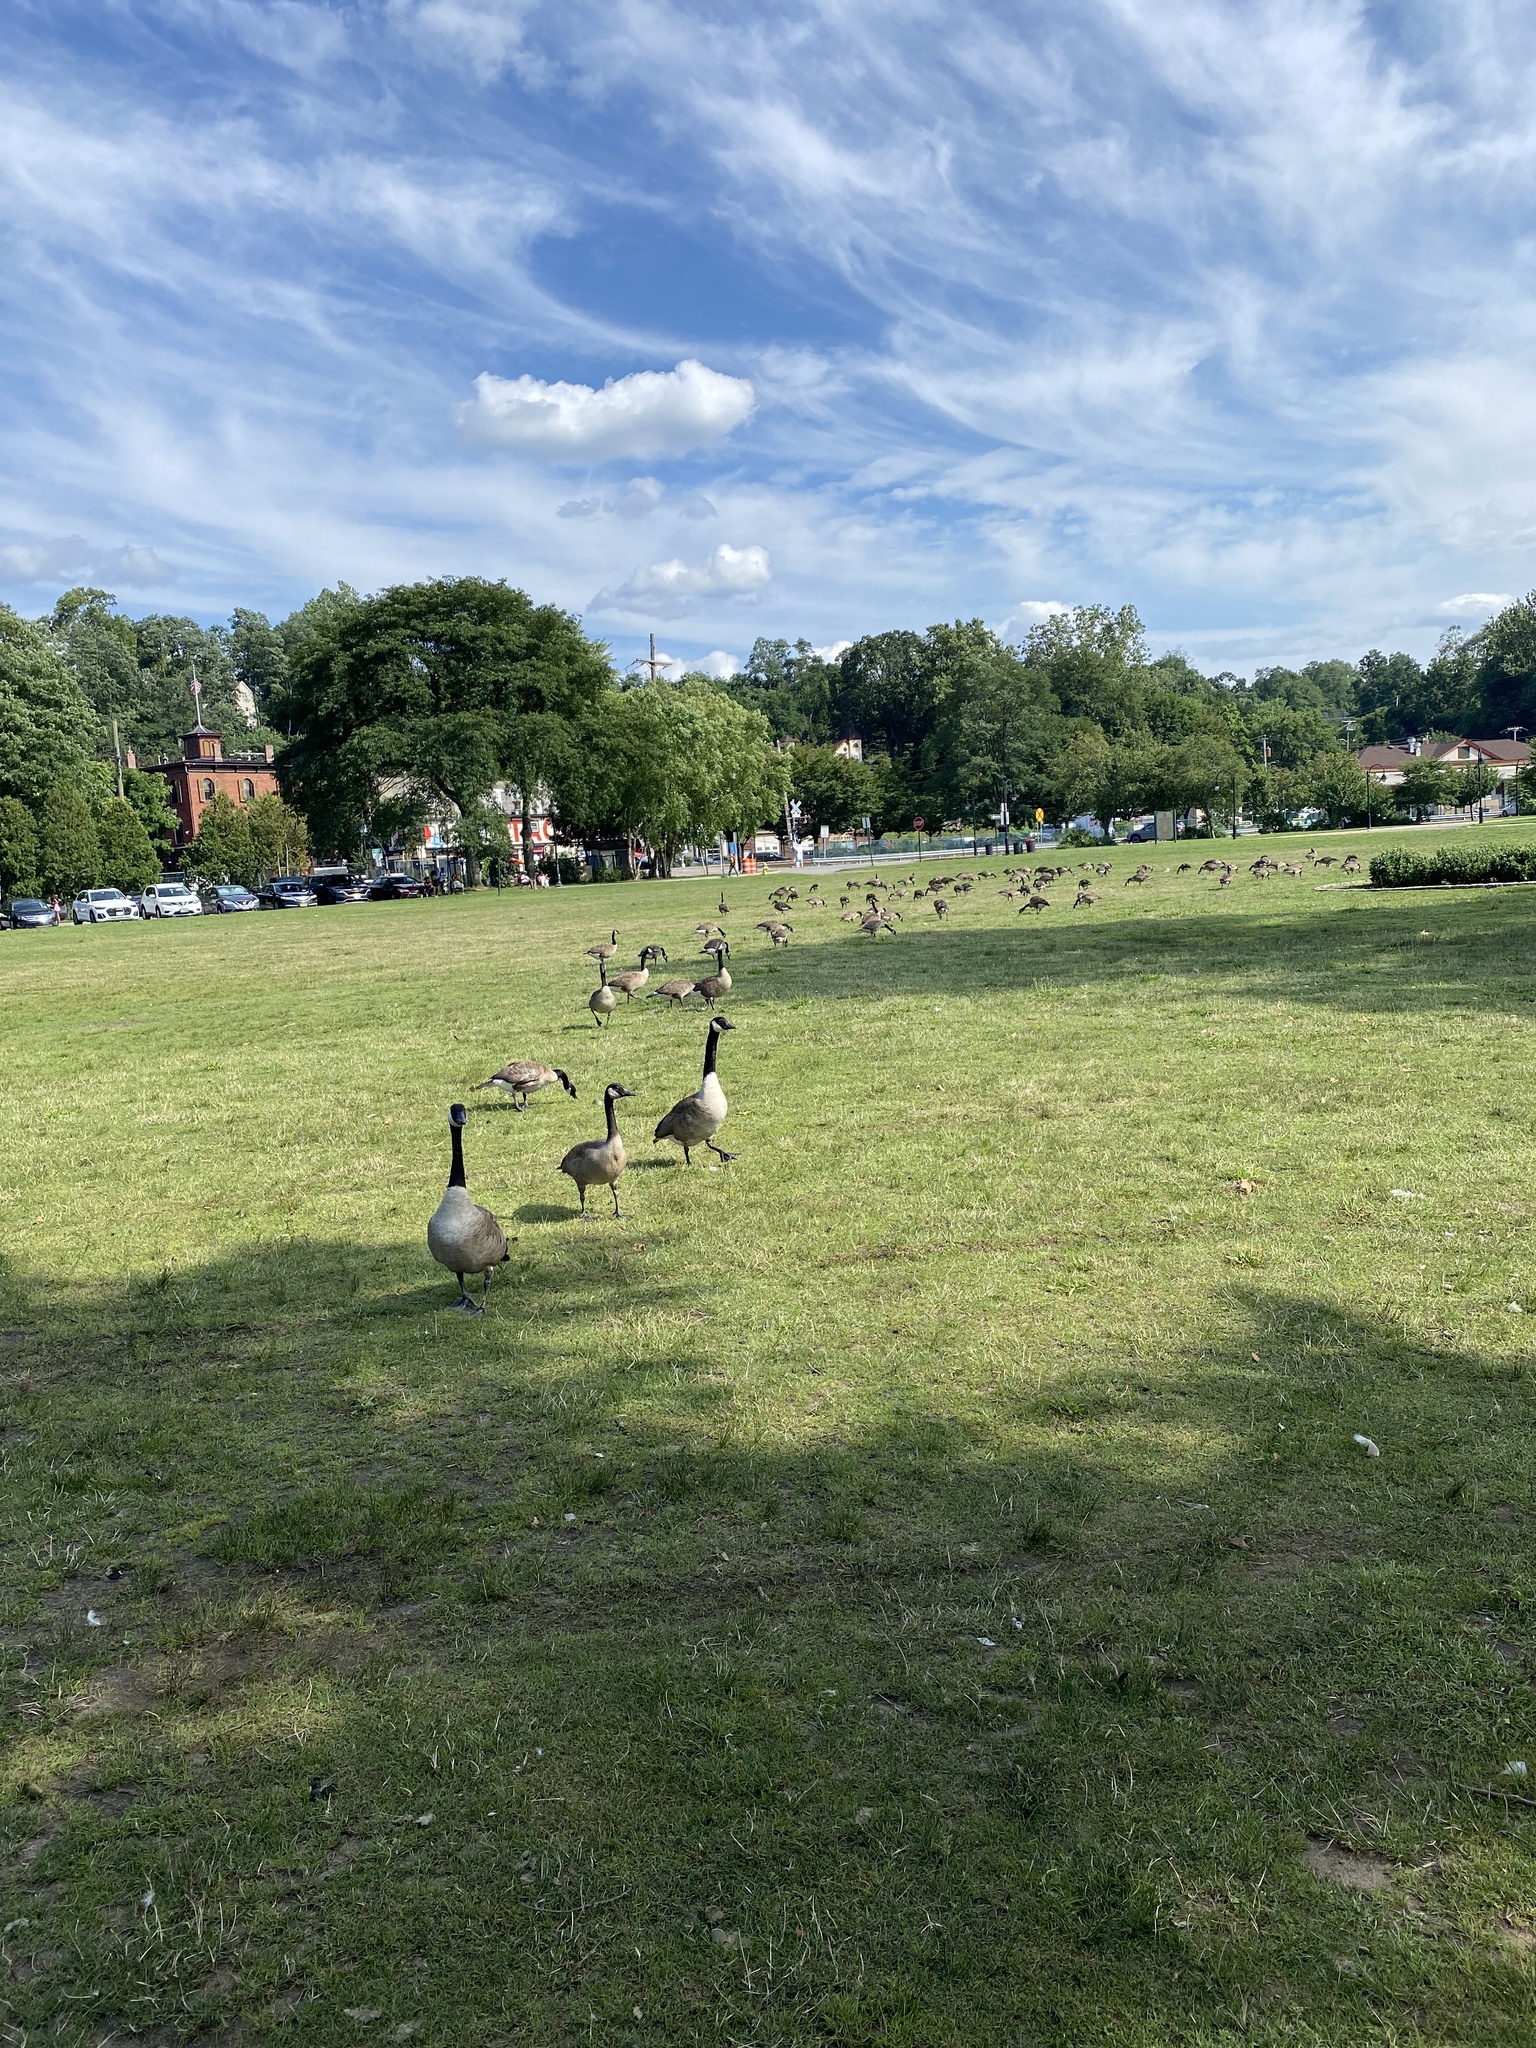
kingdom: Animalia
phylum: Chordata
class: Aves
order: Anseriformes
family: Anatidae
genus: Branta
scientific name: Branta canadensis
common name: Canada goose
